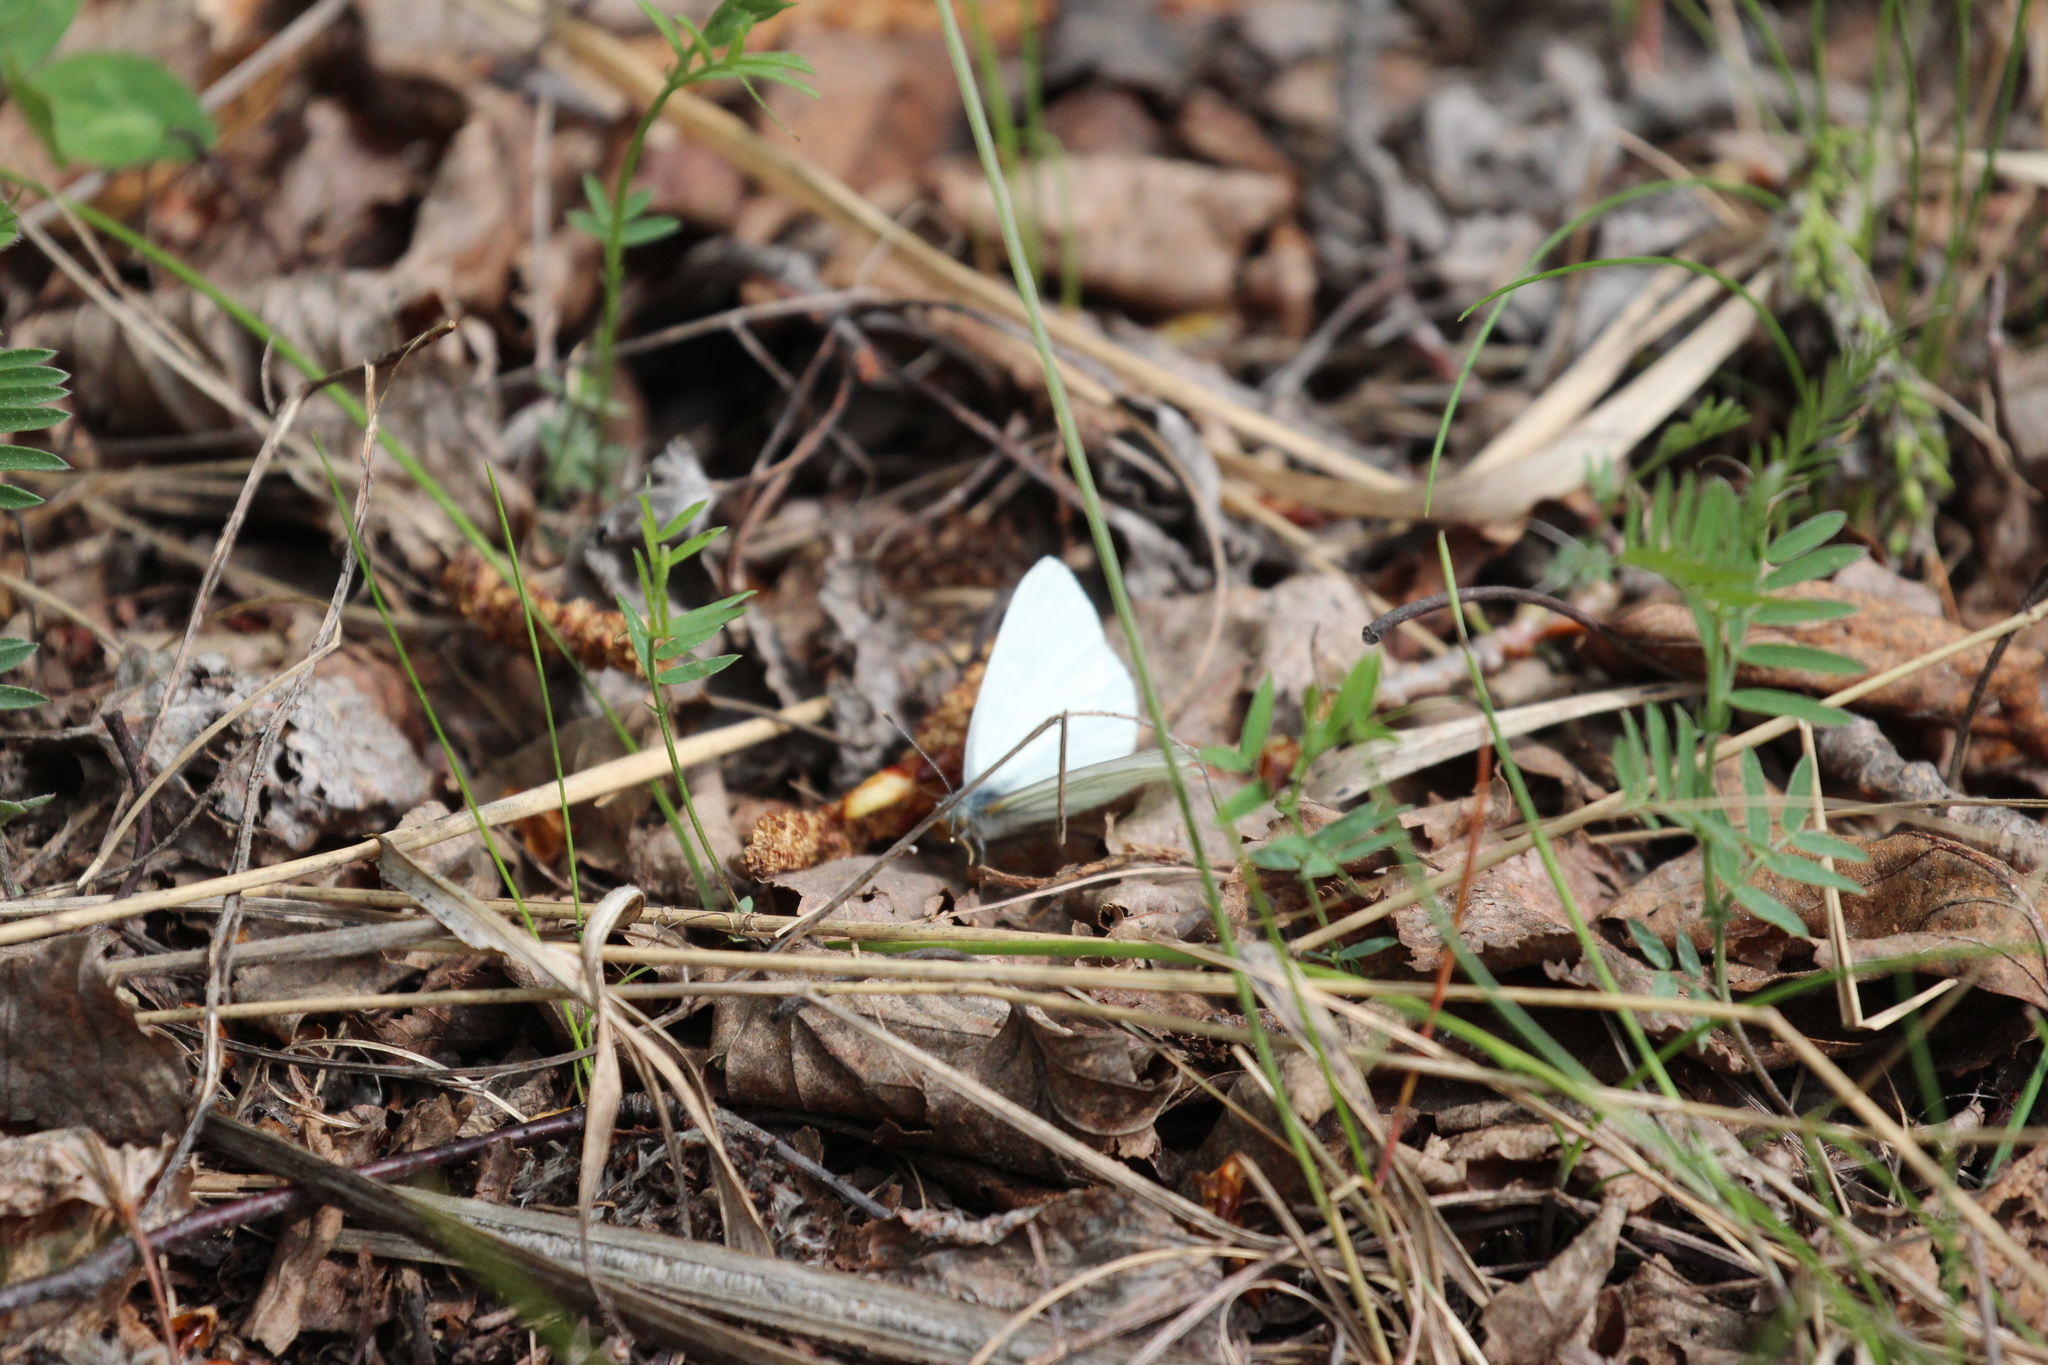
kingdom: Animalia
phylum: Arthropoda
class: Insecta
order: Lepidoptera
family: Pieridae
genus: Pieris
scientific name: Pieris oleracea
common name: Mustard white
